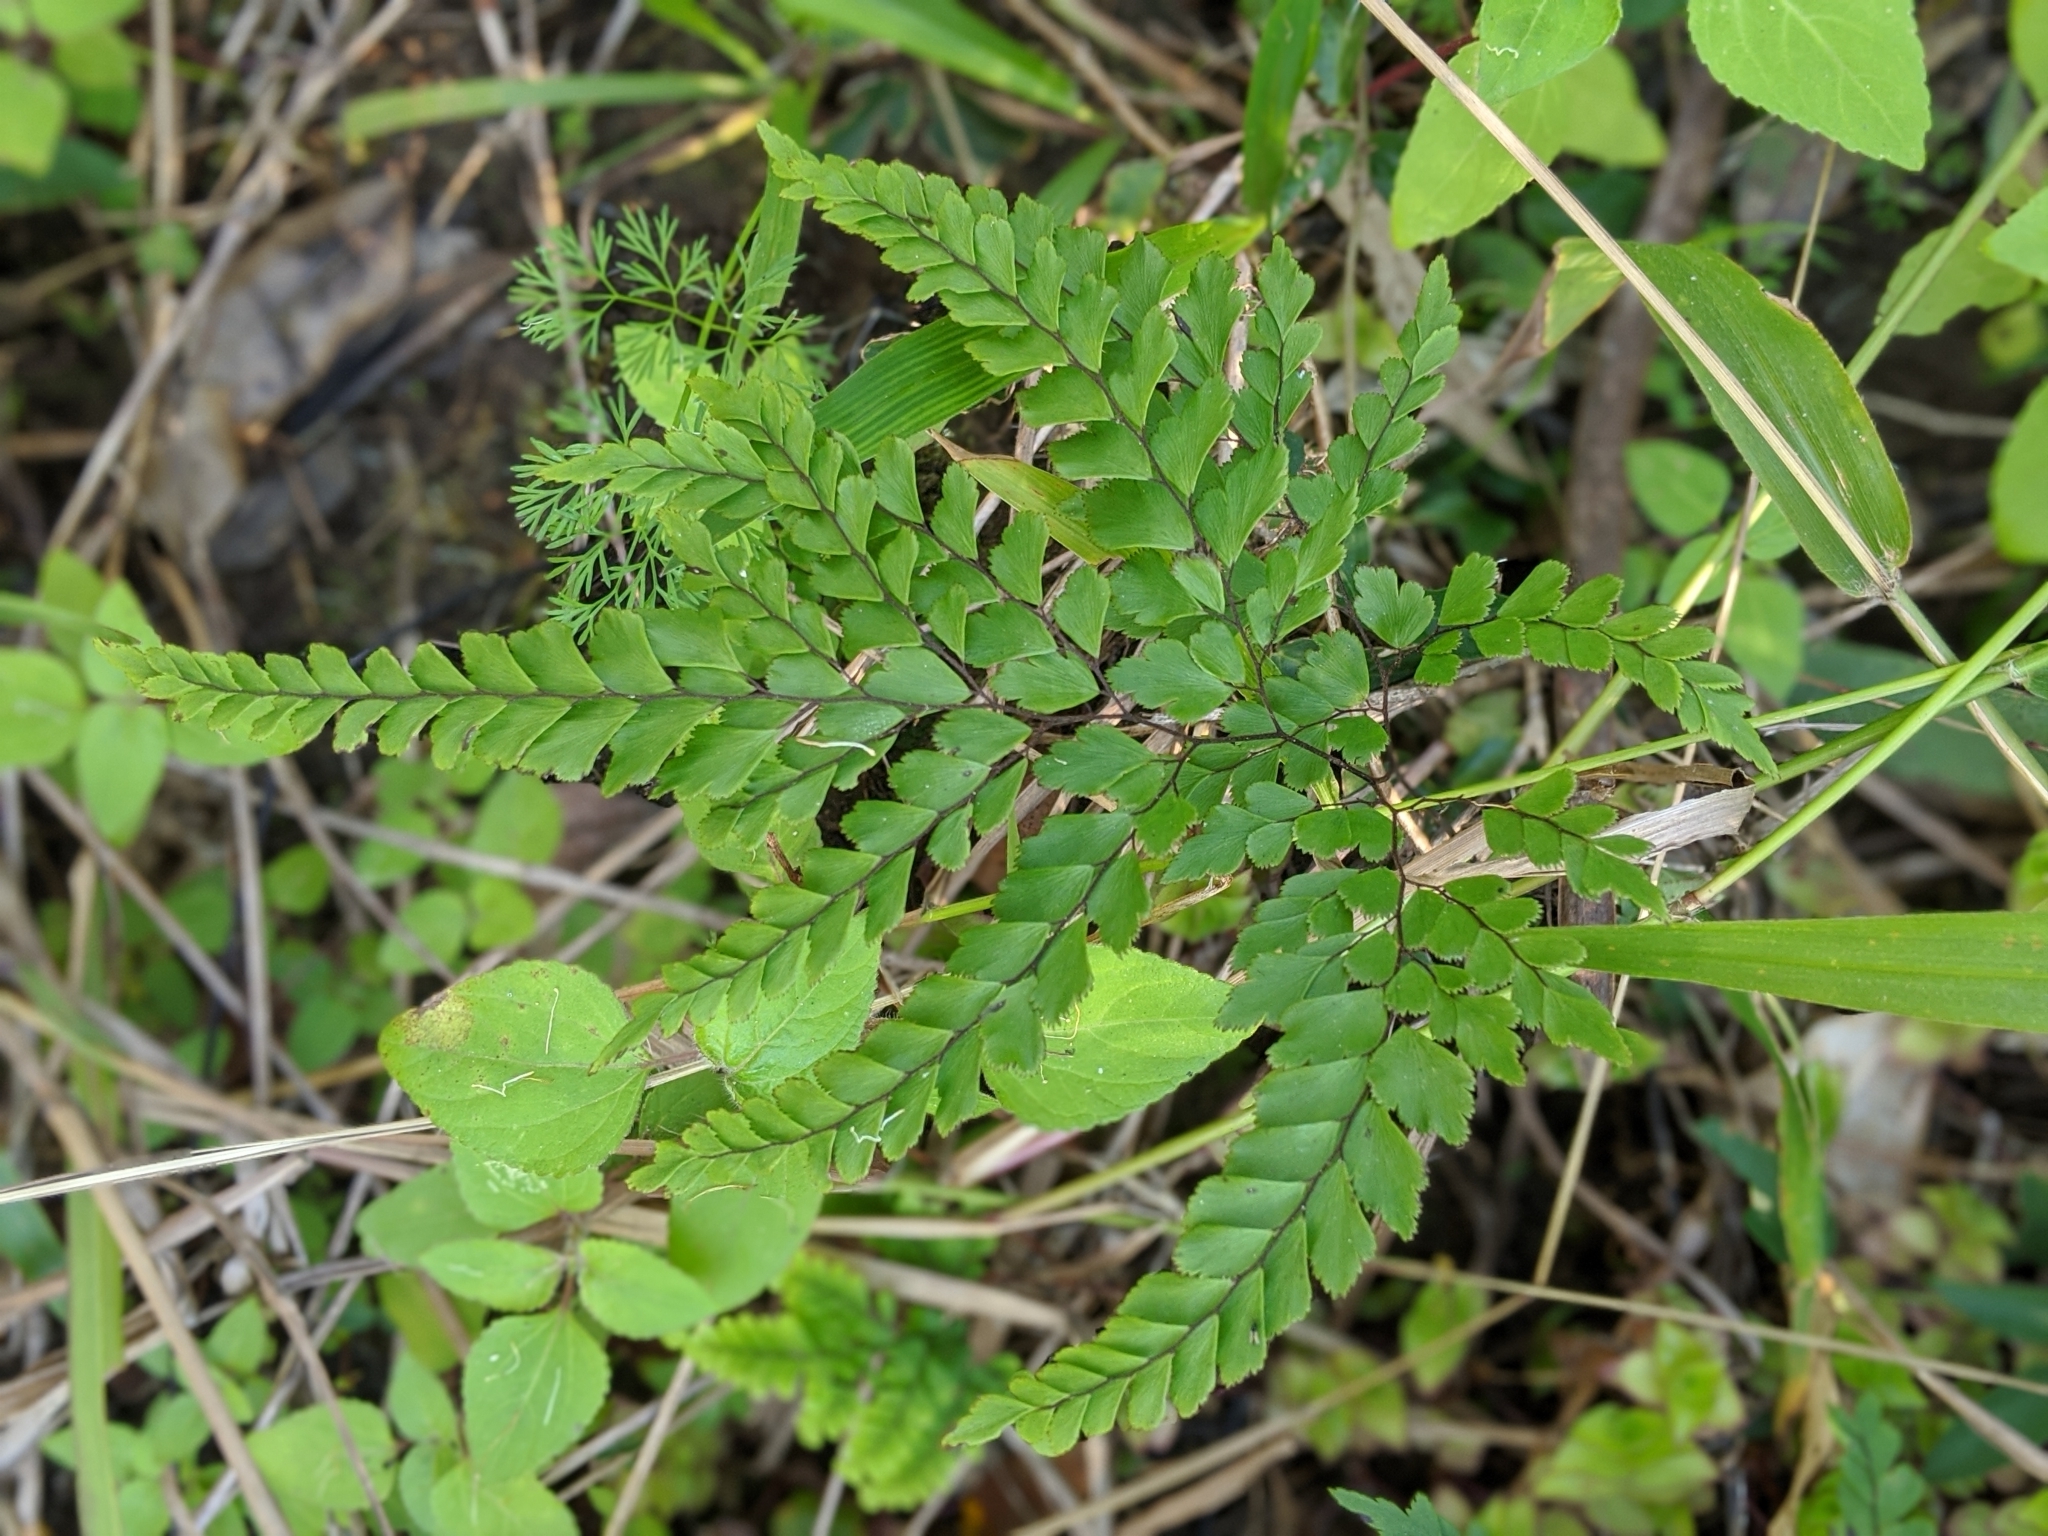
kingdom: Plantae
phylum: Tracheophyta
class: Polypodiopsida
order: Polypodiales
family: Pteridaceae
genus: Adiantum
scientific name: Adiantum formosum
